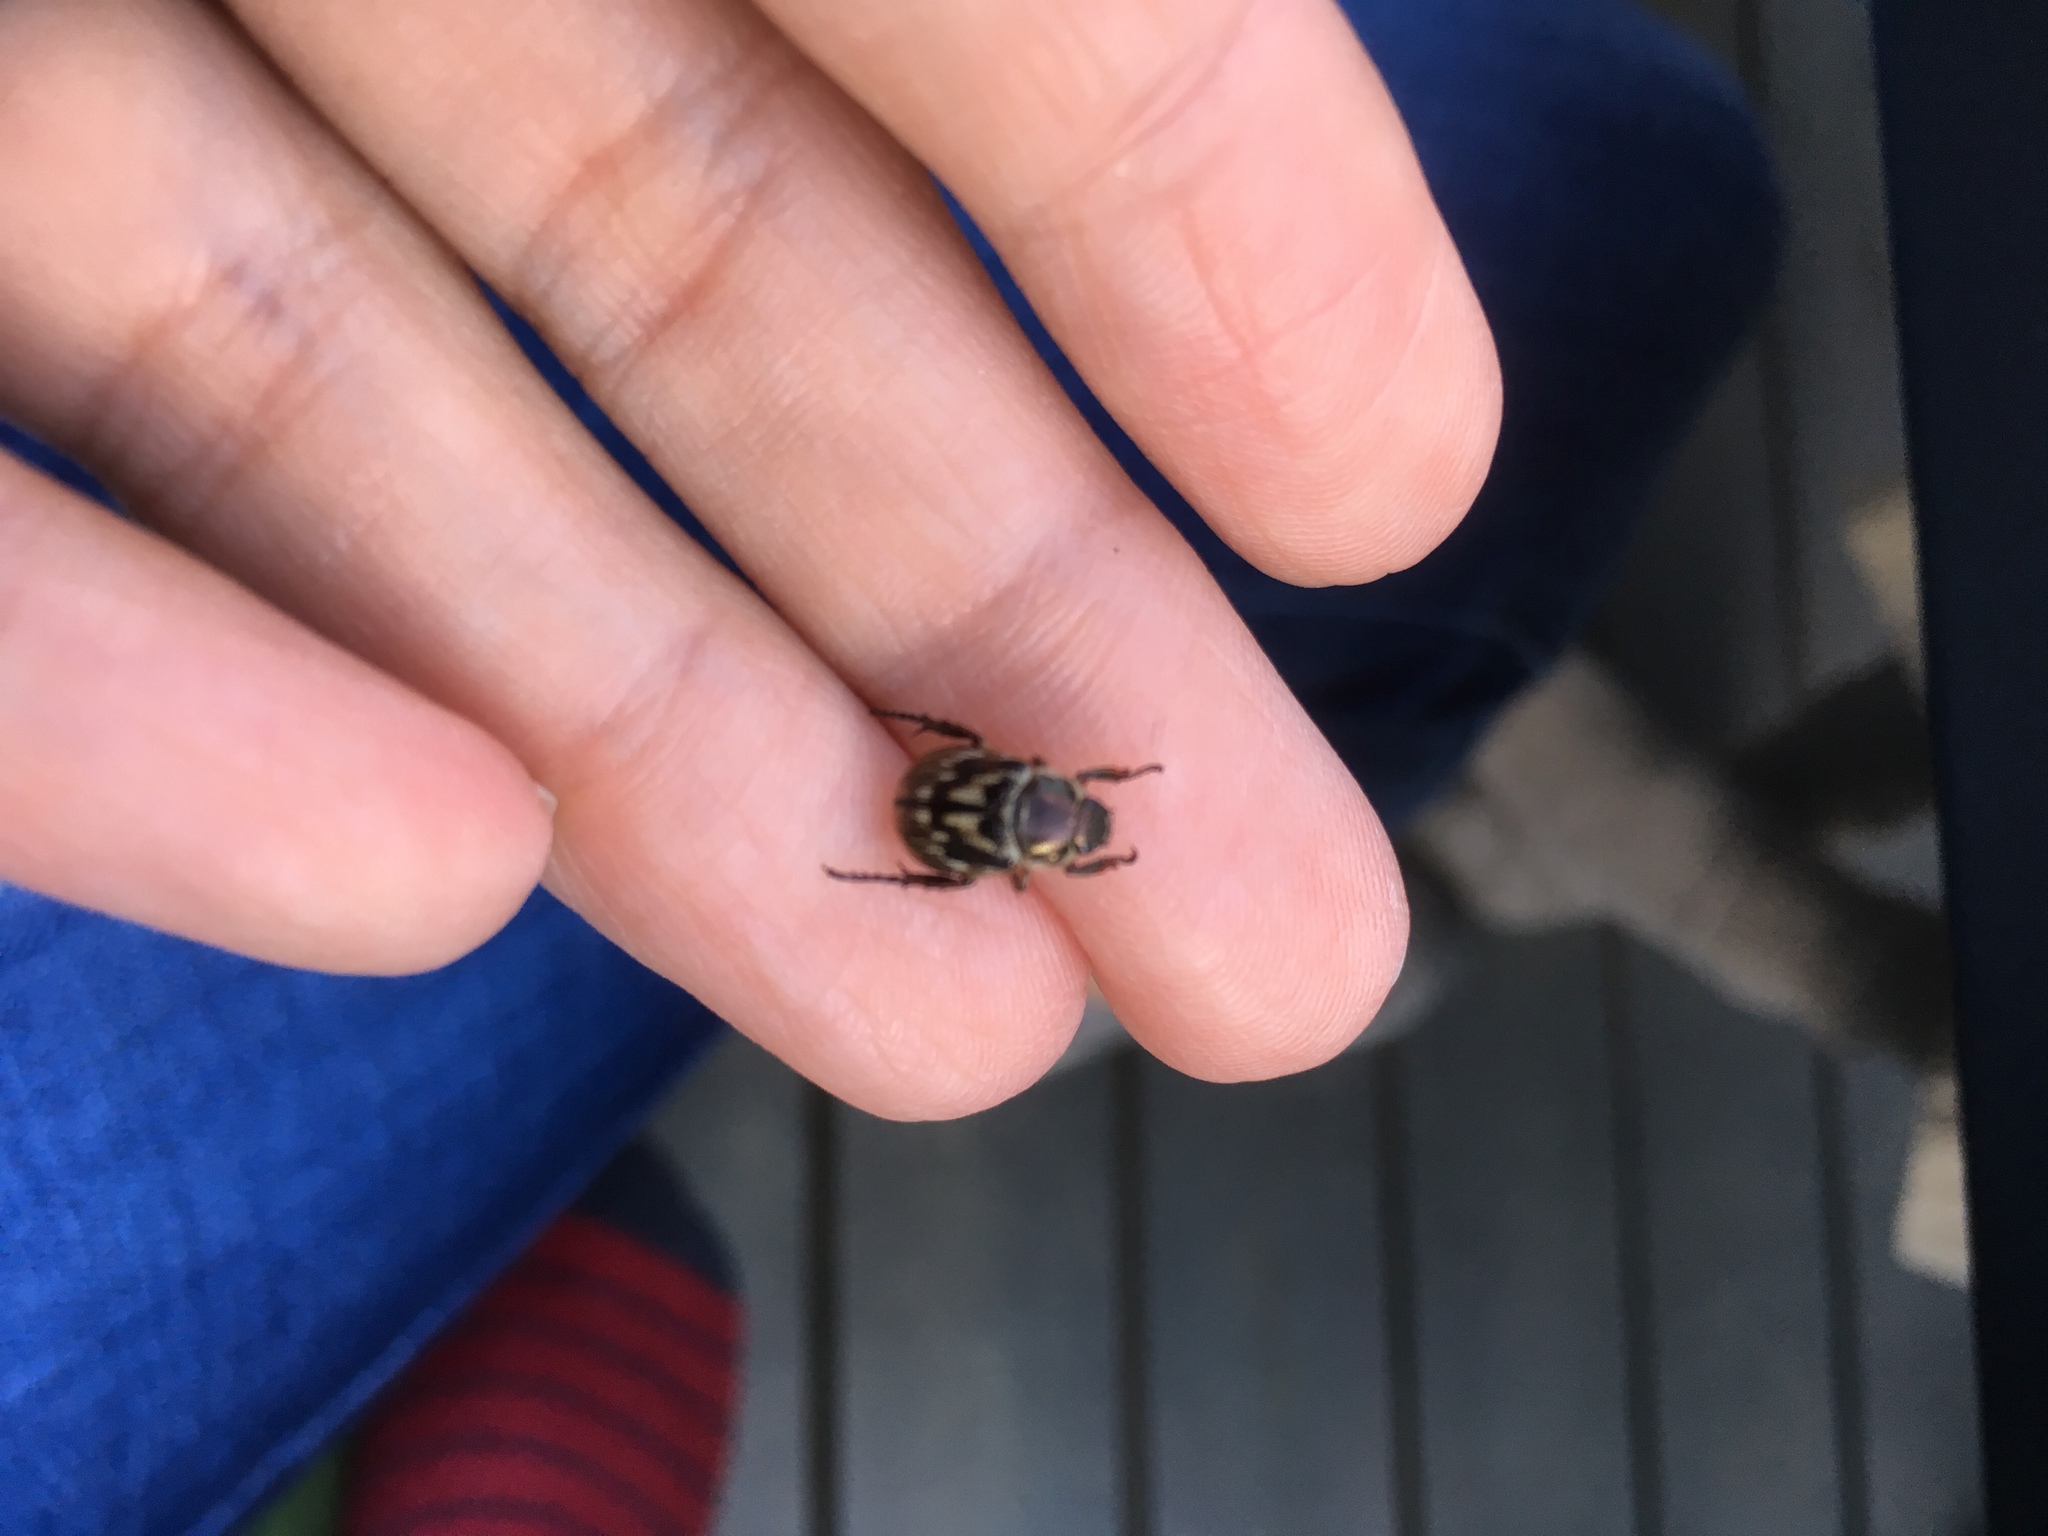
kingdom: Animalia
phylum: Arthropoda
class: Insecta
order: Coleoptera
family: Scarabaeidae
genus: Exomala
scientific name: Exomala orientalis
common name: Oriental beetle
